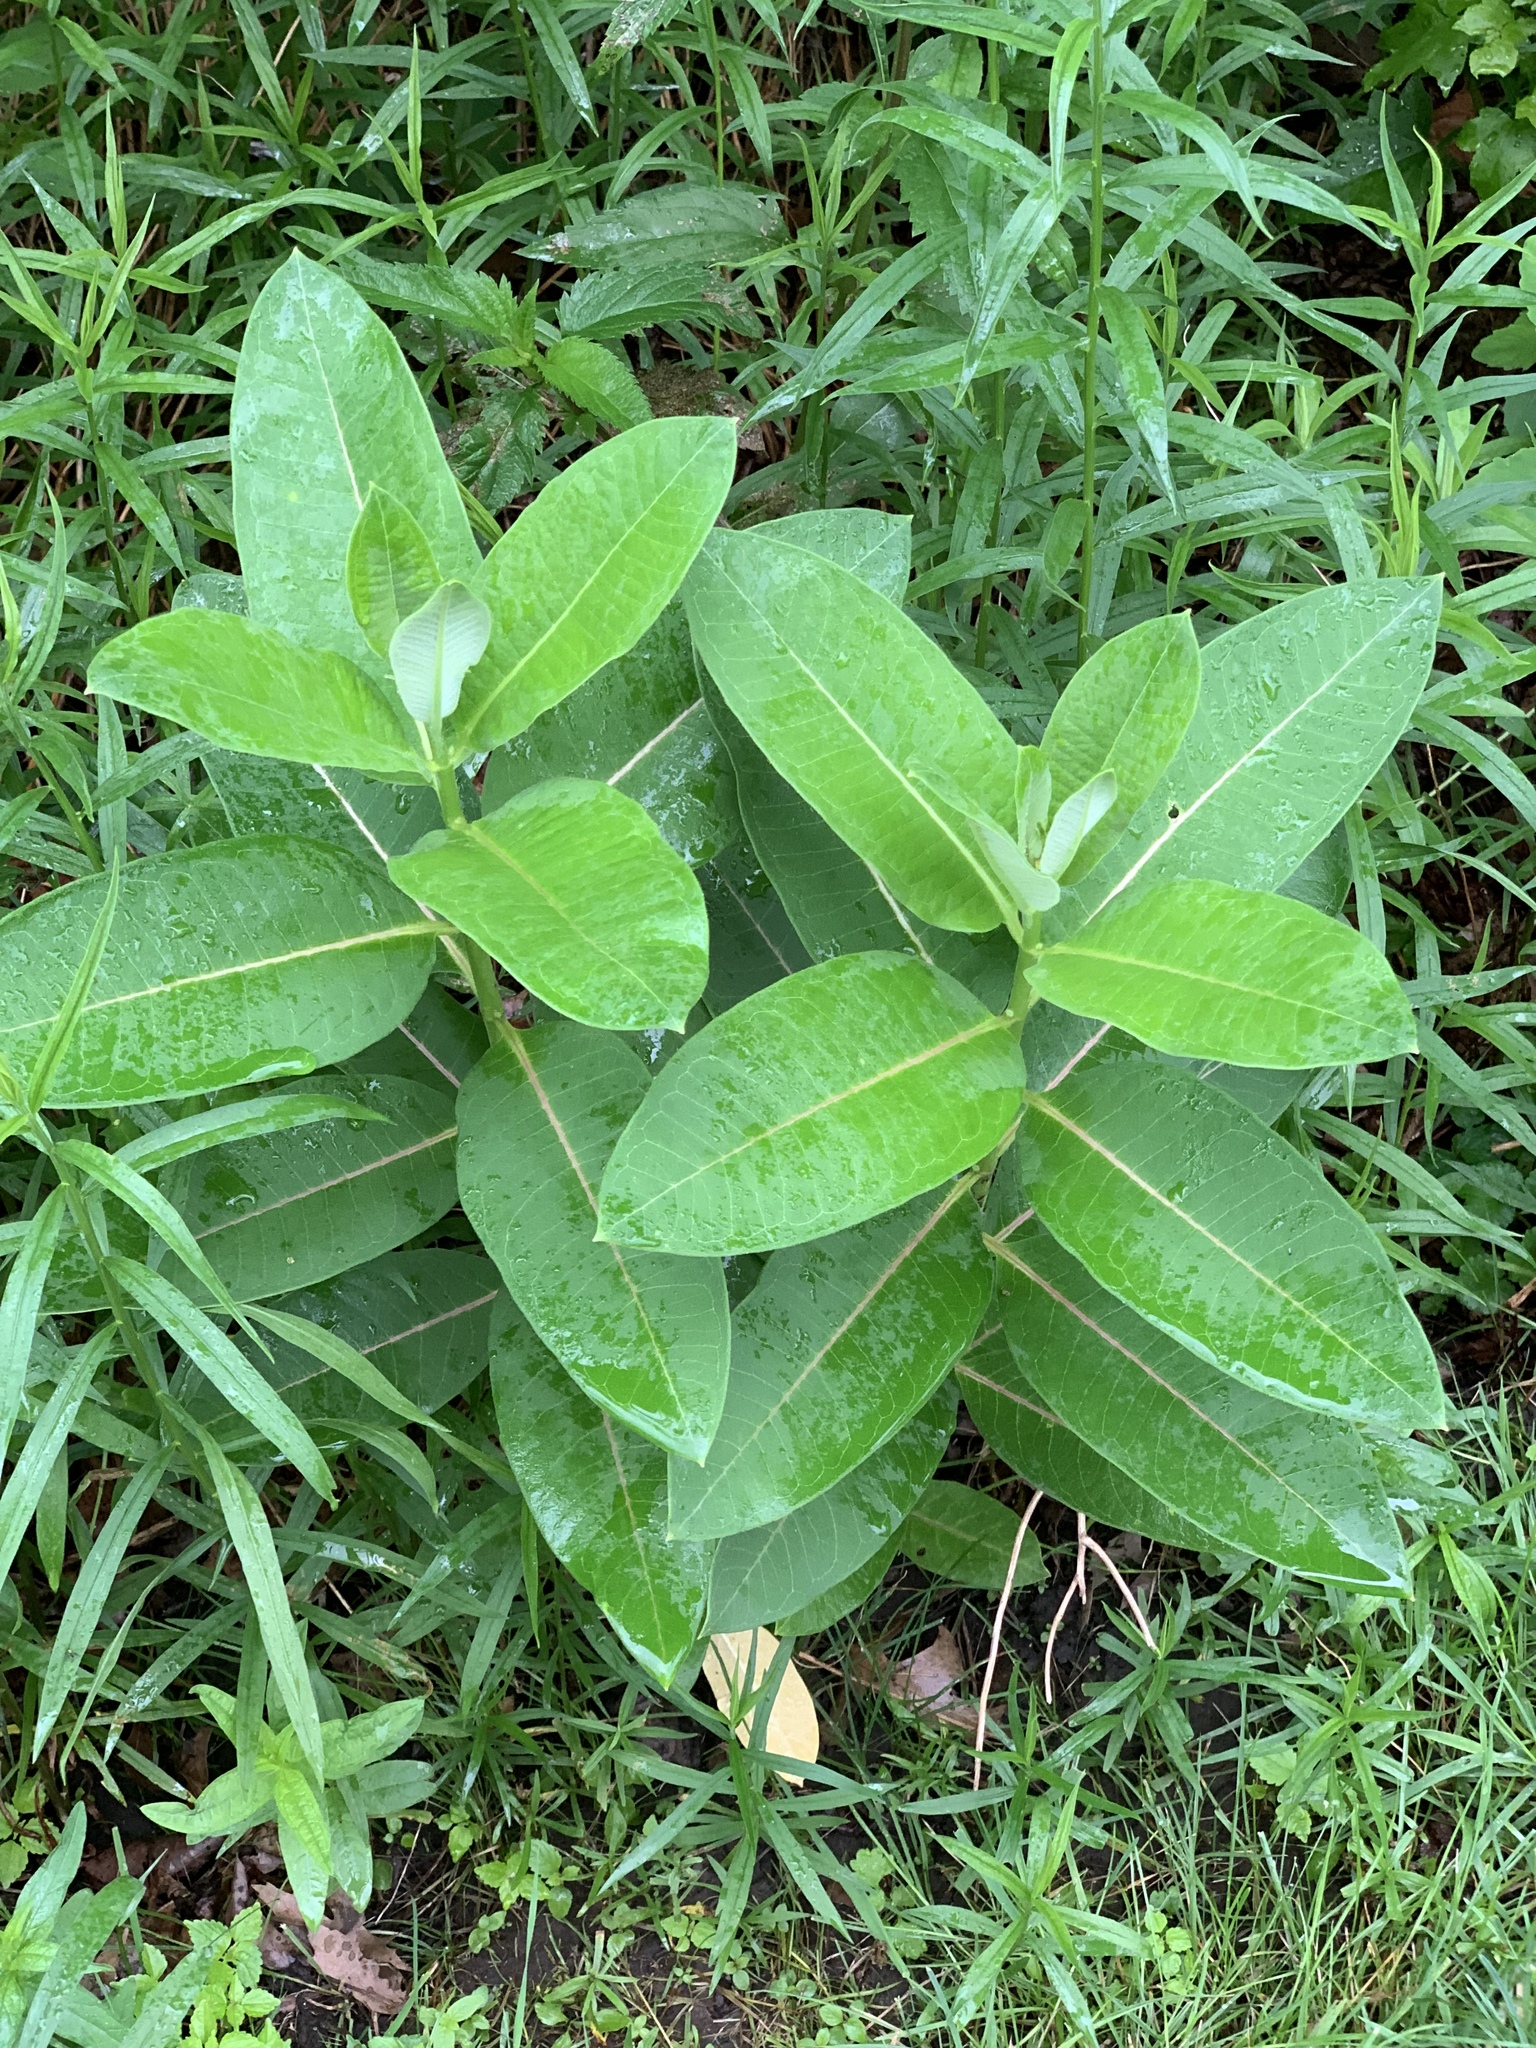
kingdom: Plantae
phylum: Tracheophyta
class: Magnoliopsida
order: Gentianales
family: Apocynaceae
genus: Asclepias
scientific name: Asclepias syriaca
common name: Common milkweed
